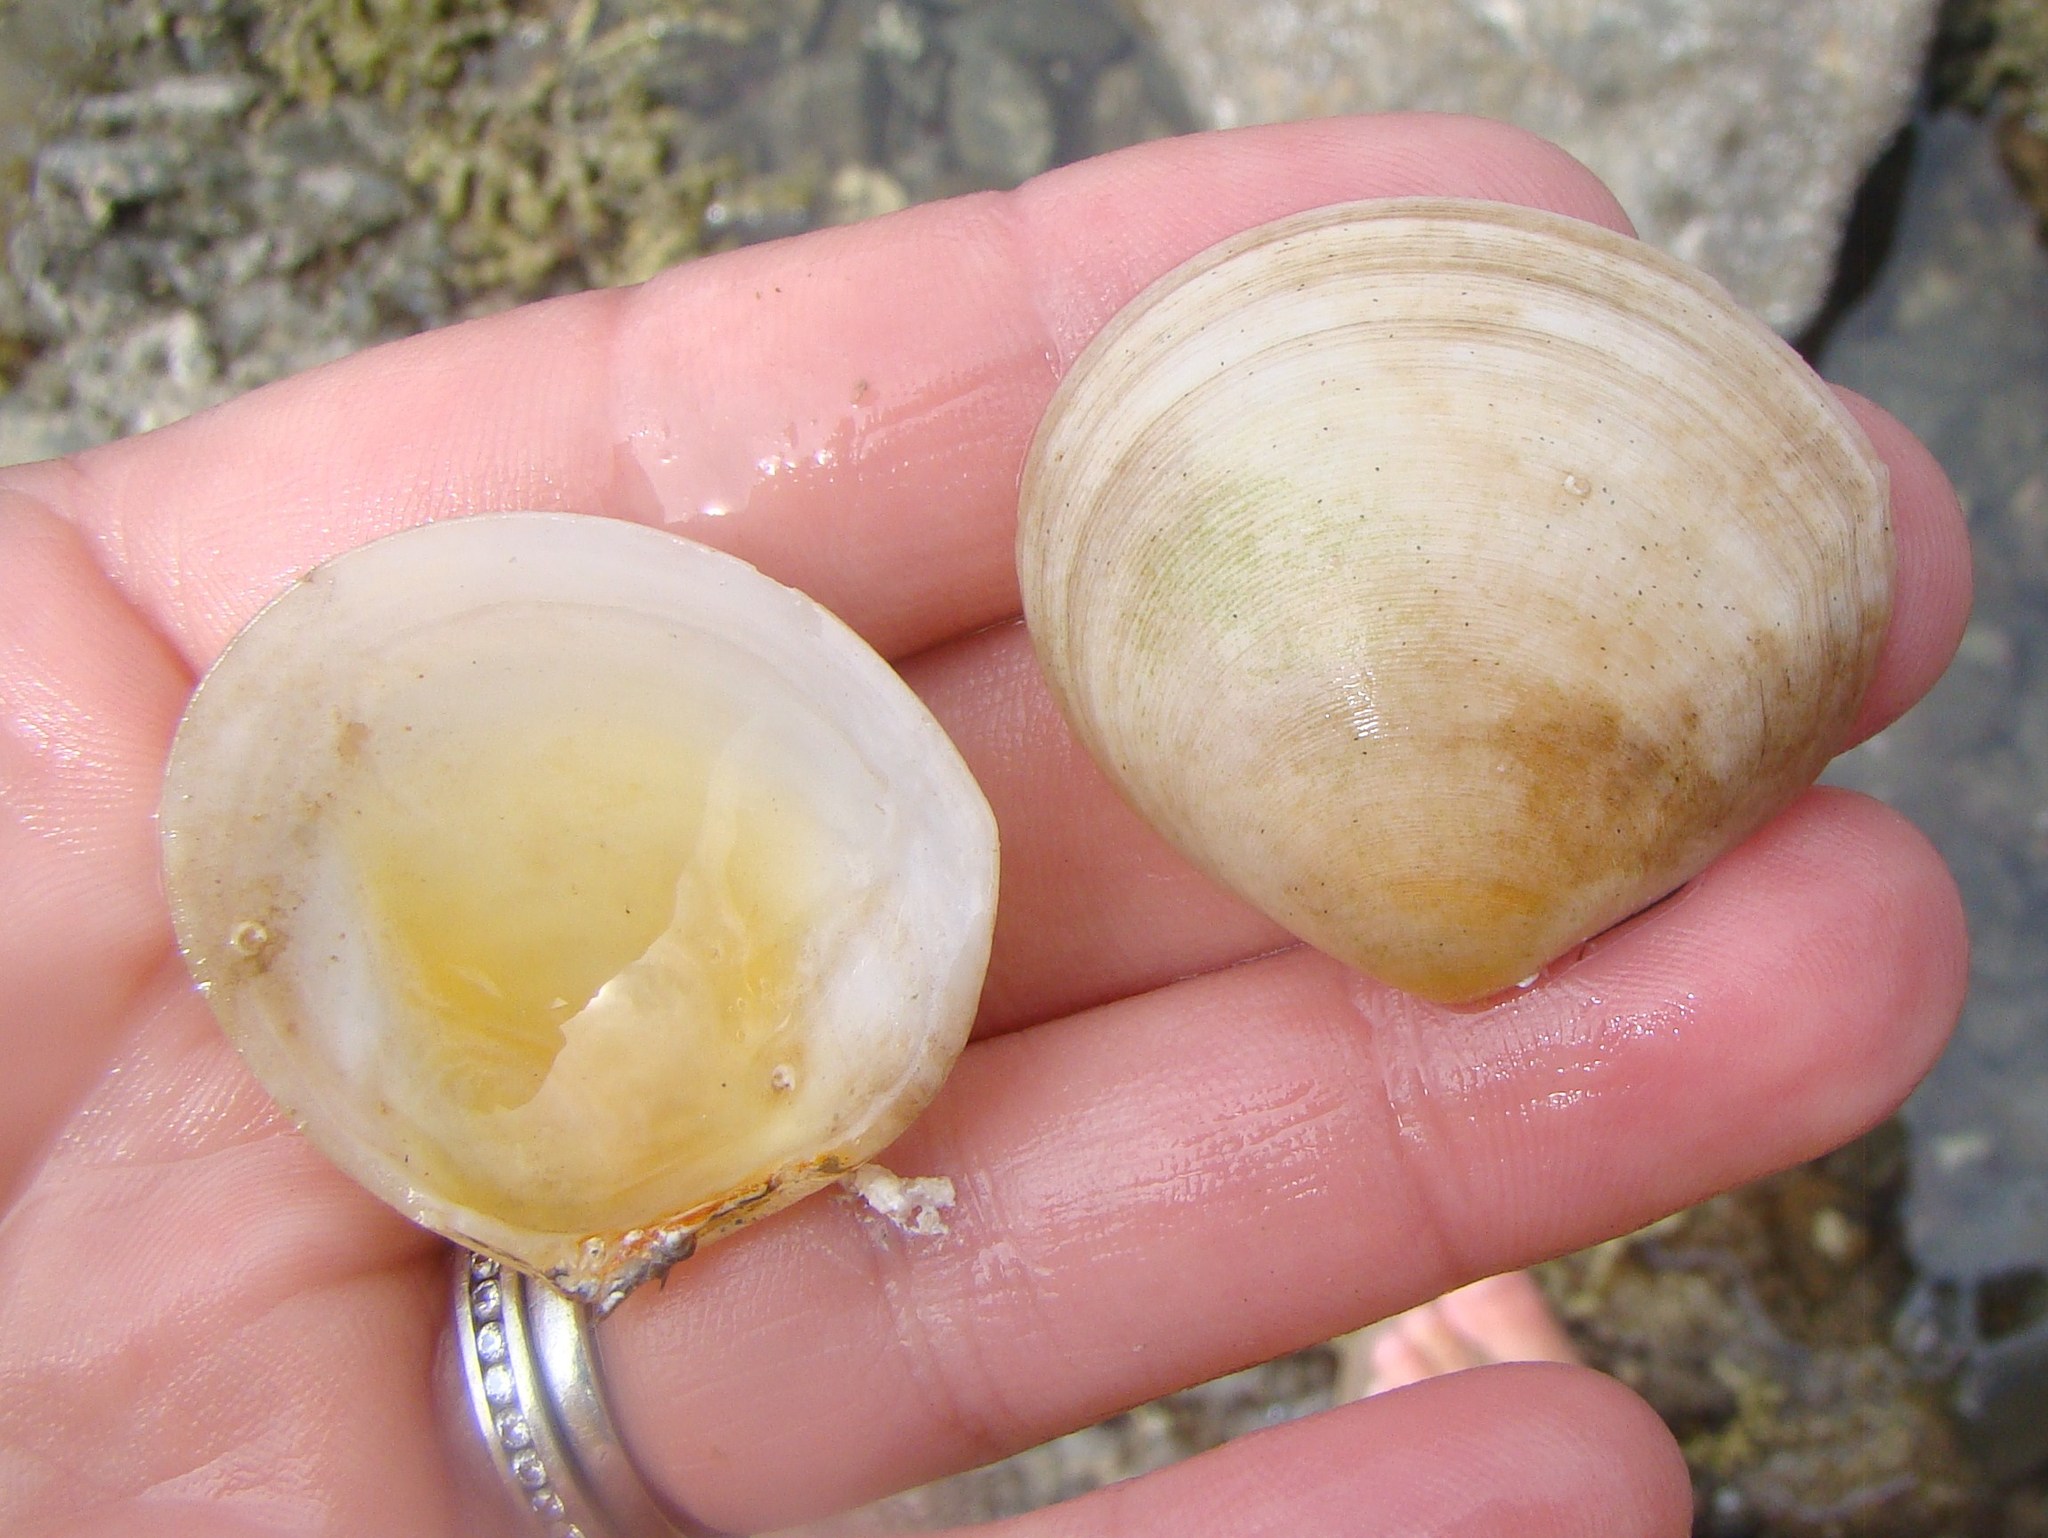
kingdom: Animalia
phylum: Mollusca
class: Bivalvia
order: Cardiida
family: Tellinidae
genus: Pseudarcopagia
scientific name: Pseudarcopagia disculus
